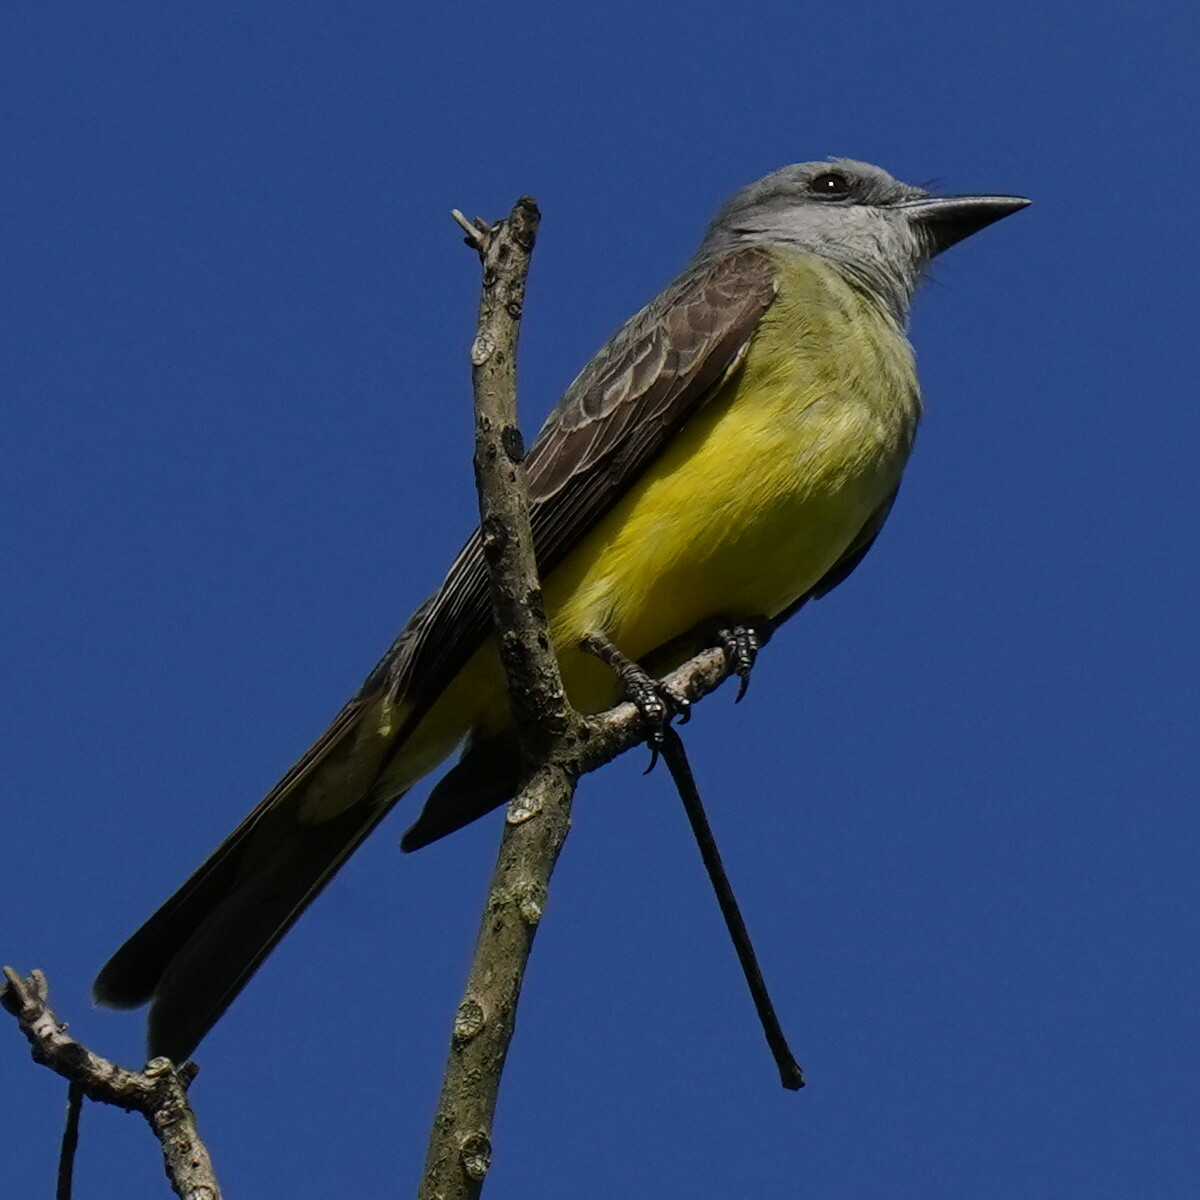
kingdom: Animalia
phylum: Chordata
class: Aves
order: Passeriformes
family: Tyrannidae
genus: Tyrannus
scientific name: Tyrannus melancholicus
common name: Tropical kingbird
